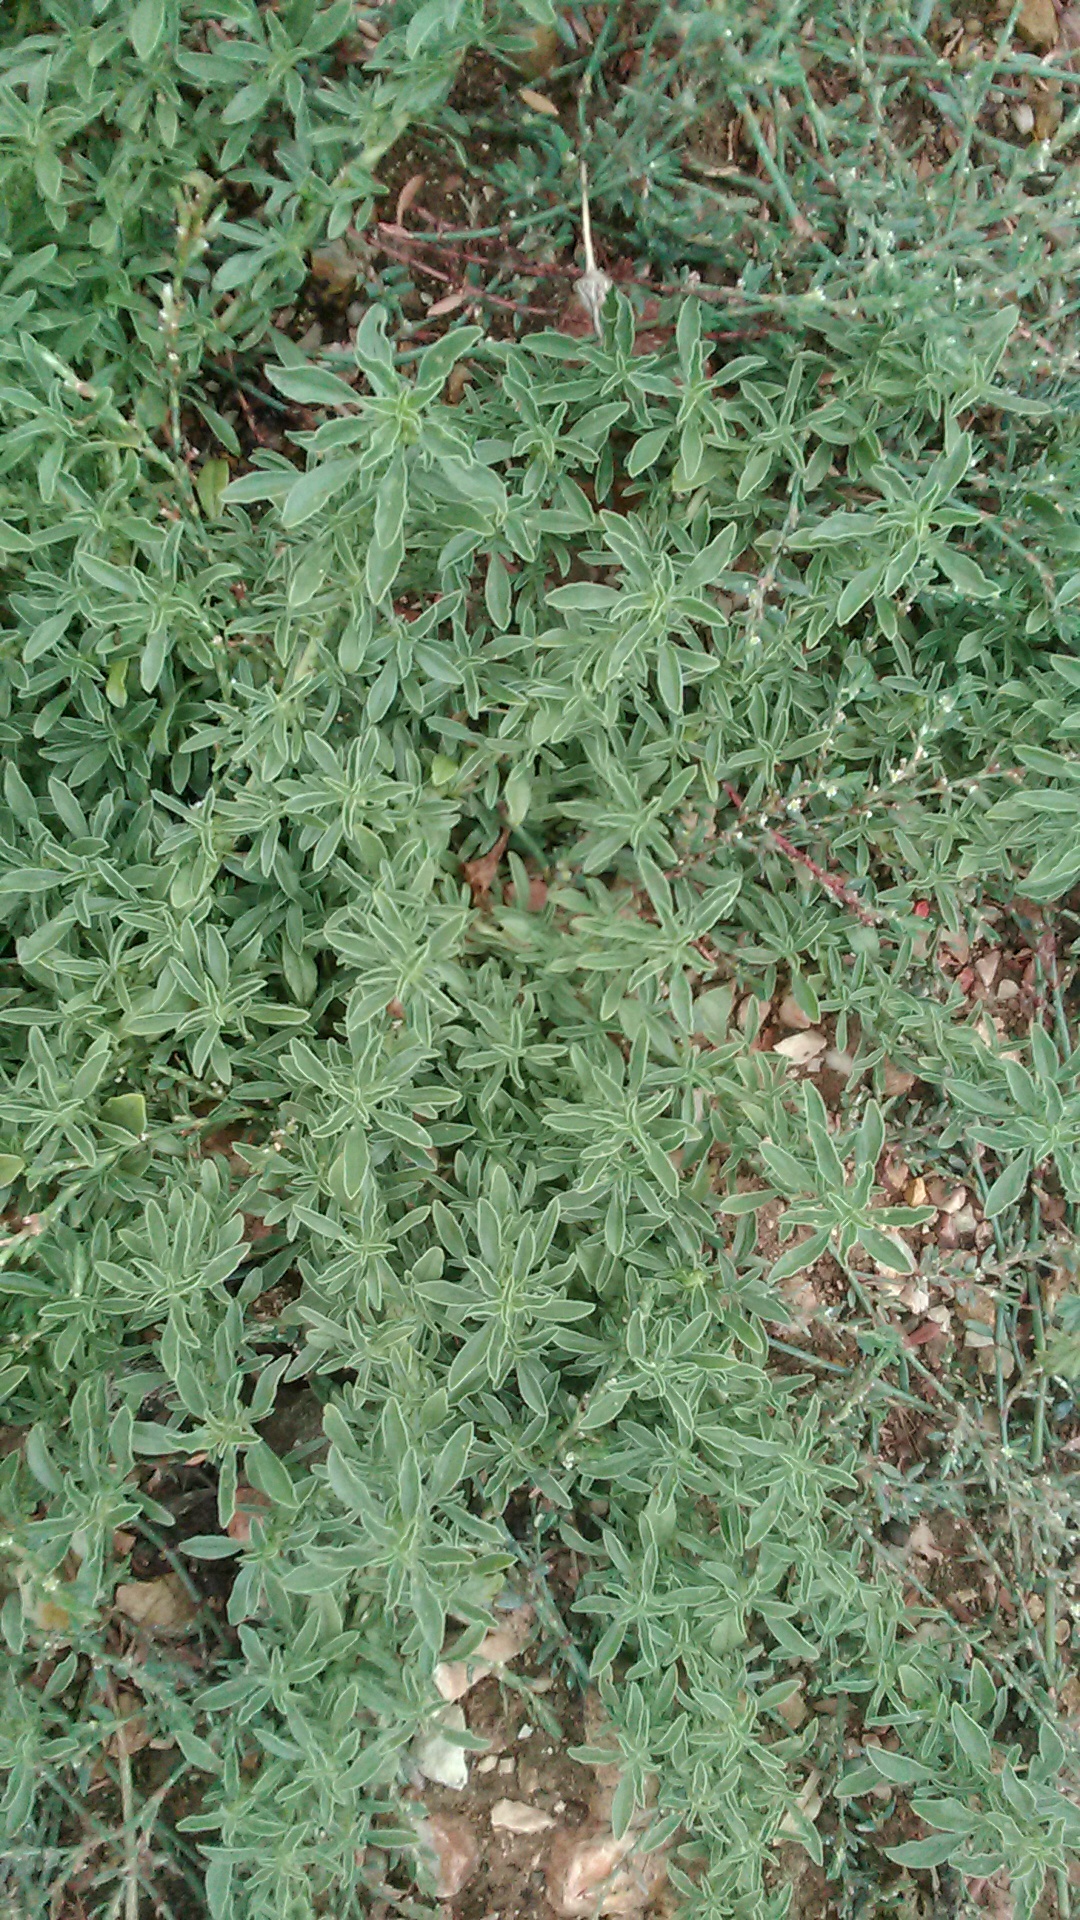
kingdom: Plantae
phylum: Tracheophyta
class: Magnoliopsida
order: Caryophyllales
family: Amaranthaceae
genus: Amaranthus
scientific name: Amaranthus blitoides
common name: Prostrate pigweed
